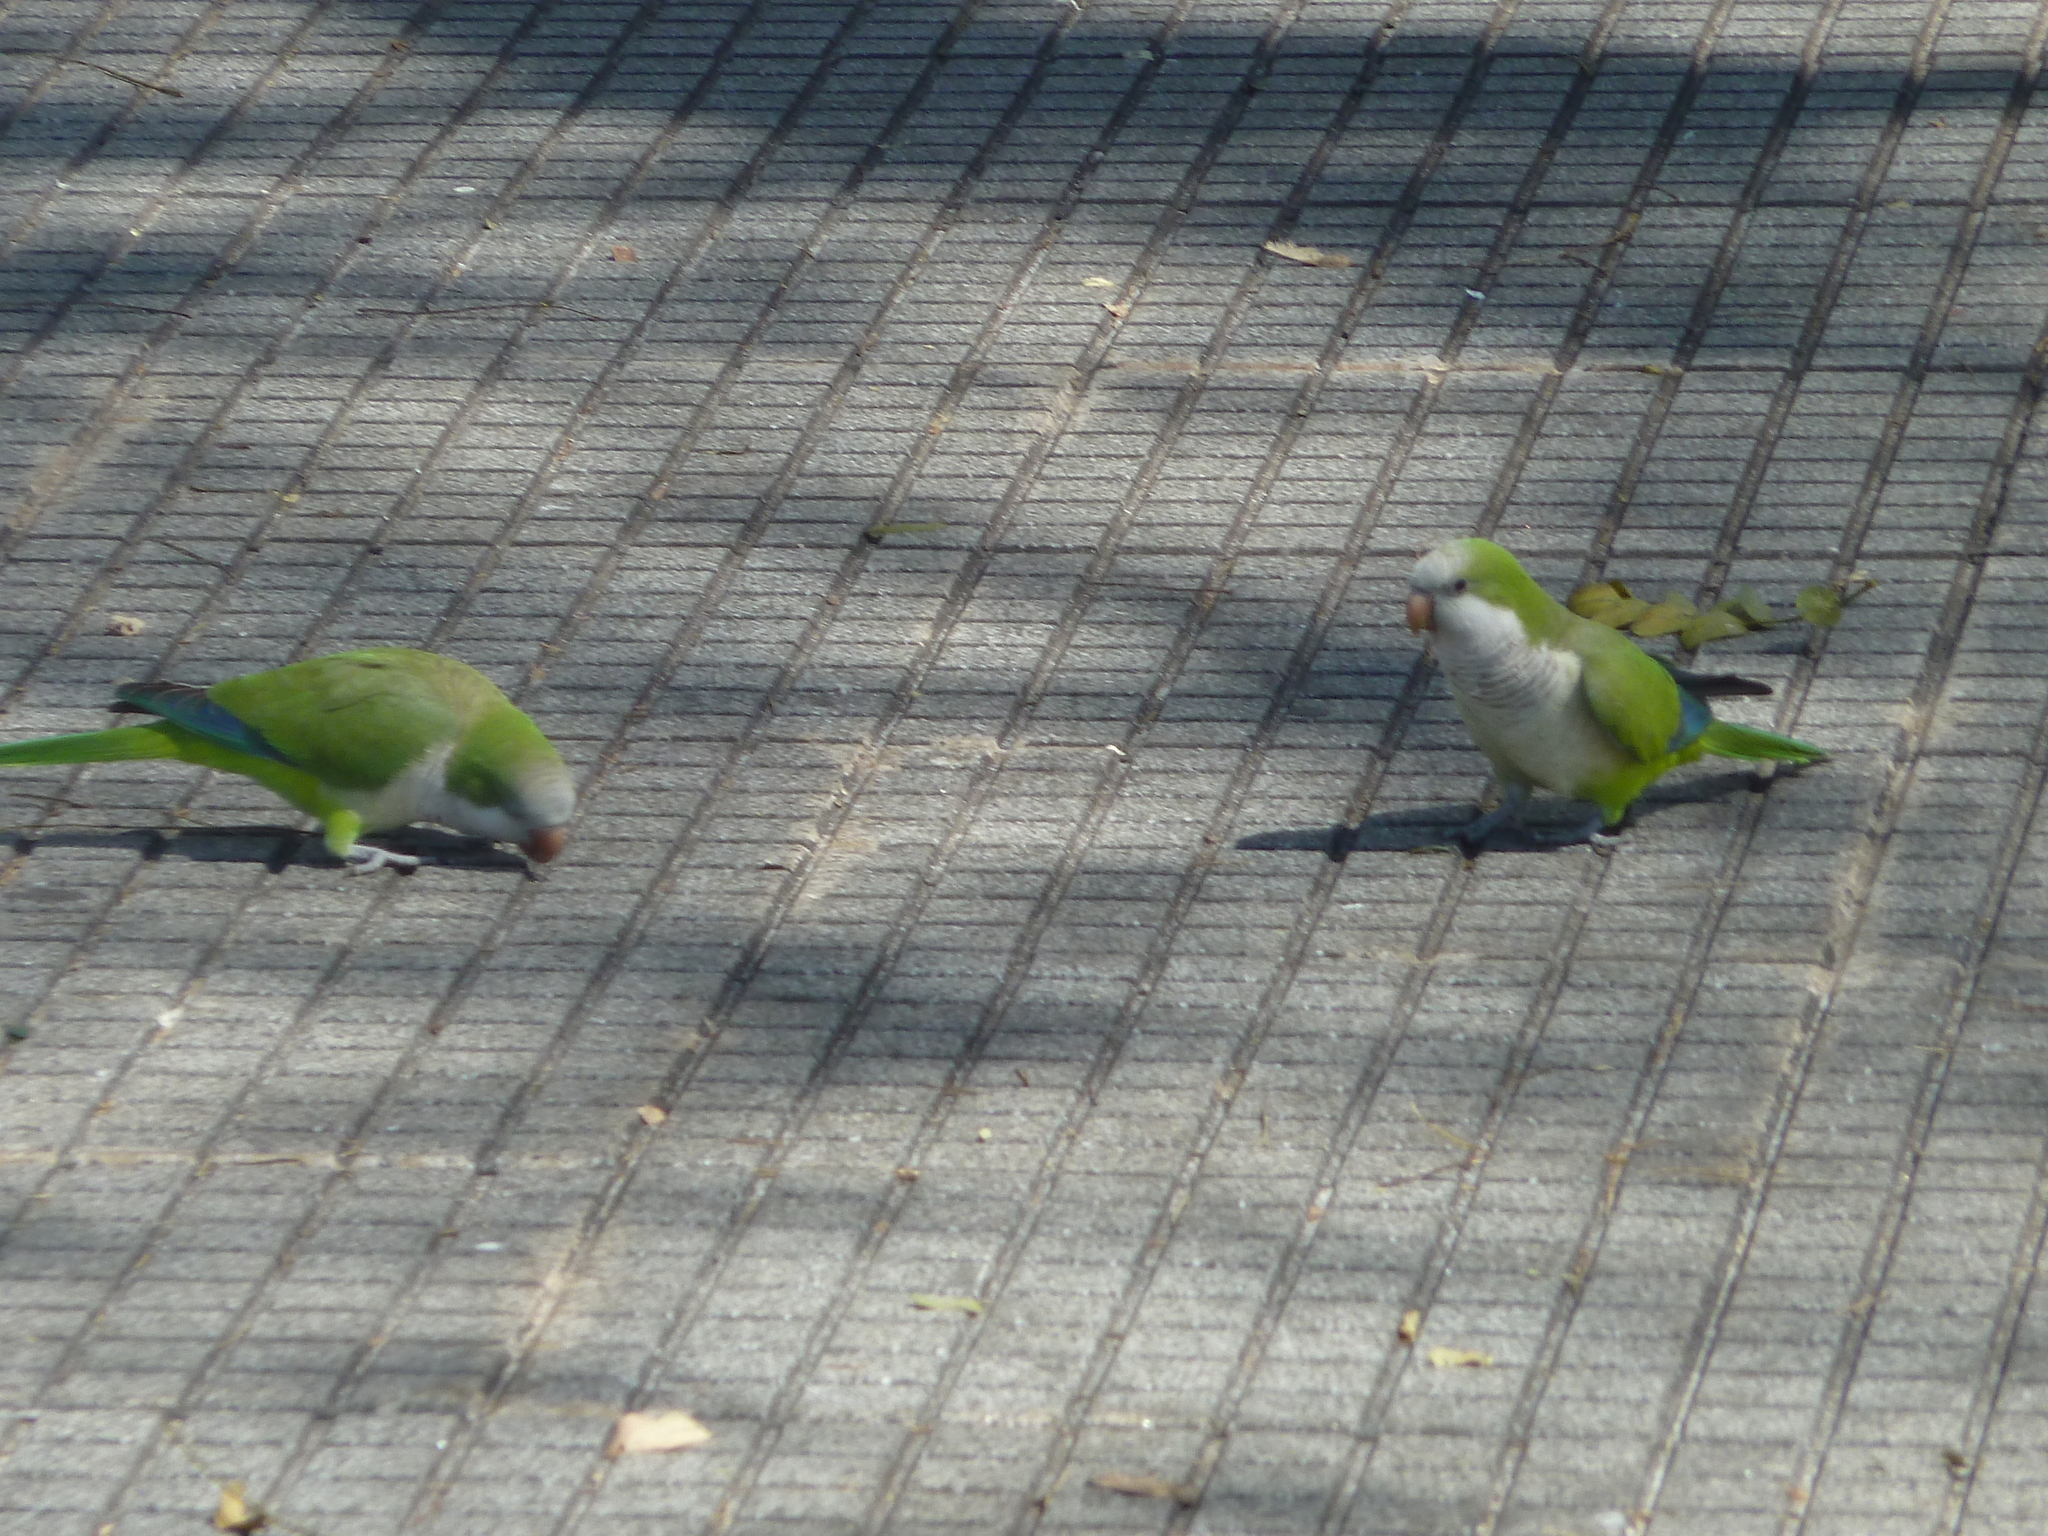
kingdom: Animalia
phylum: Chordata
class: Aves
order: Psittaciformes
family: Psittacidae
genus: Myiopsitta
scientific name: Myiopsitta monachus
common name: Monk parakeet
